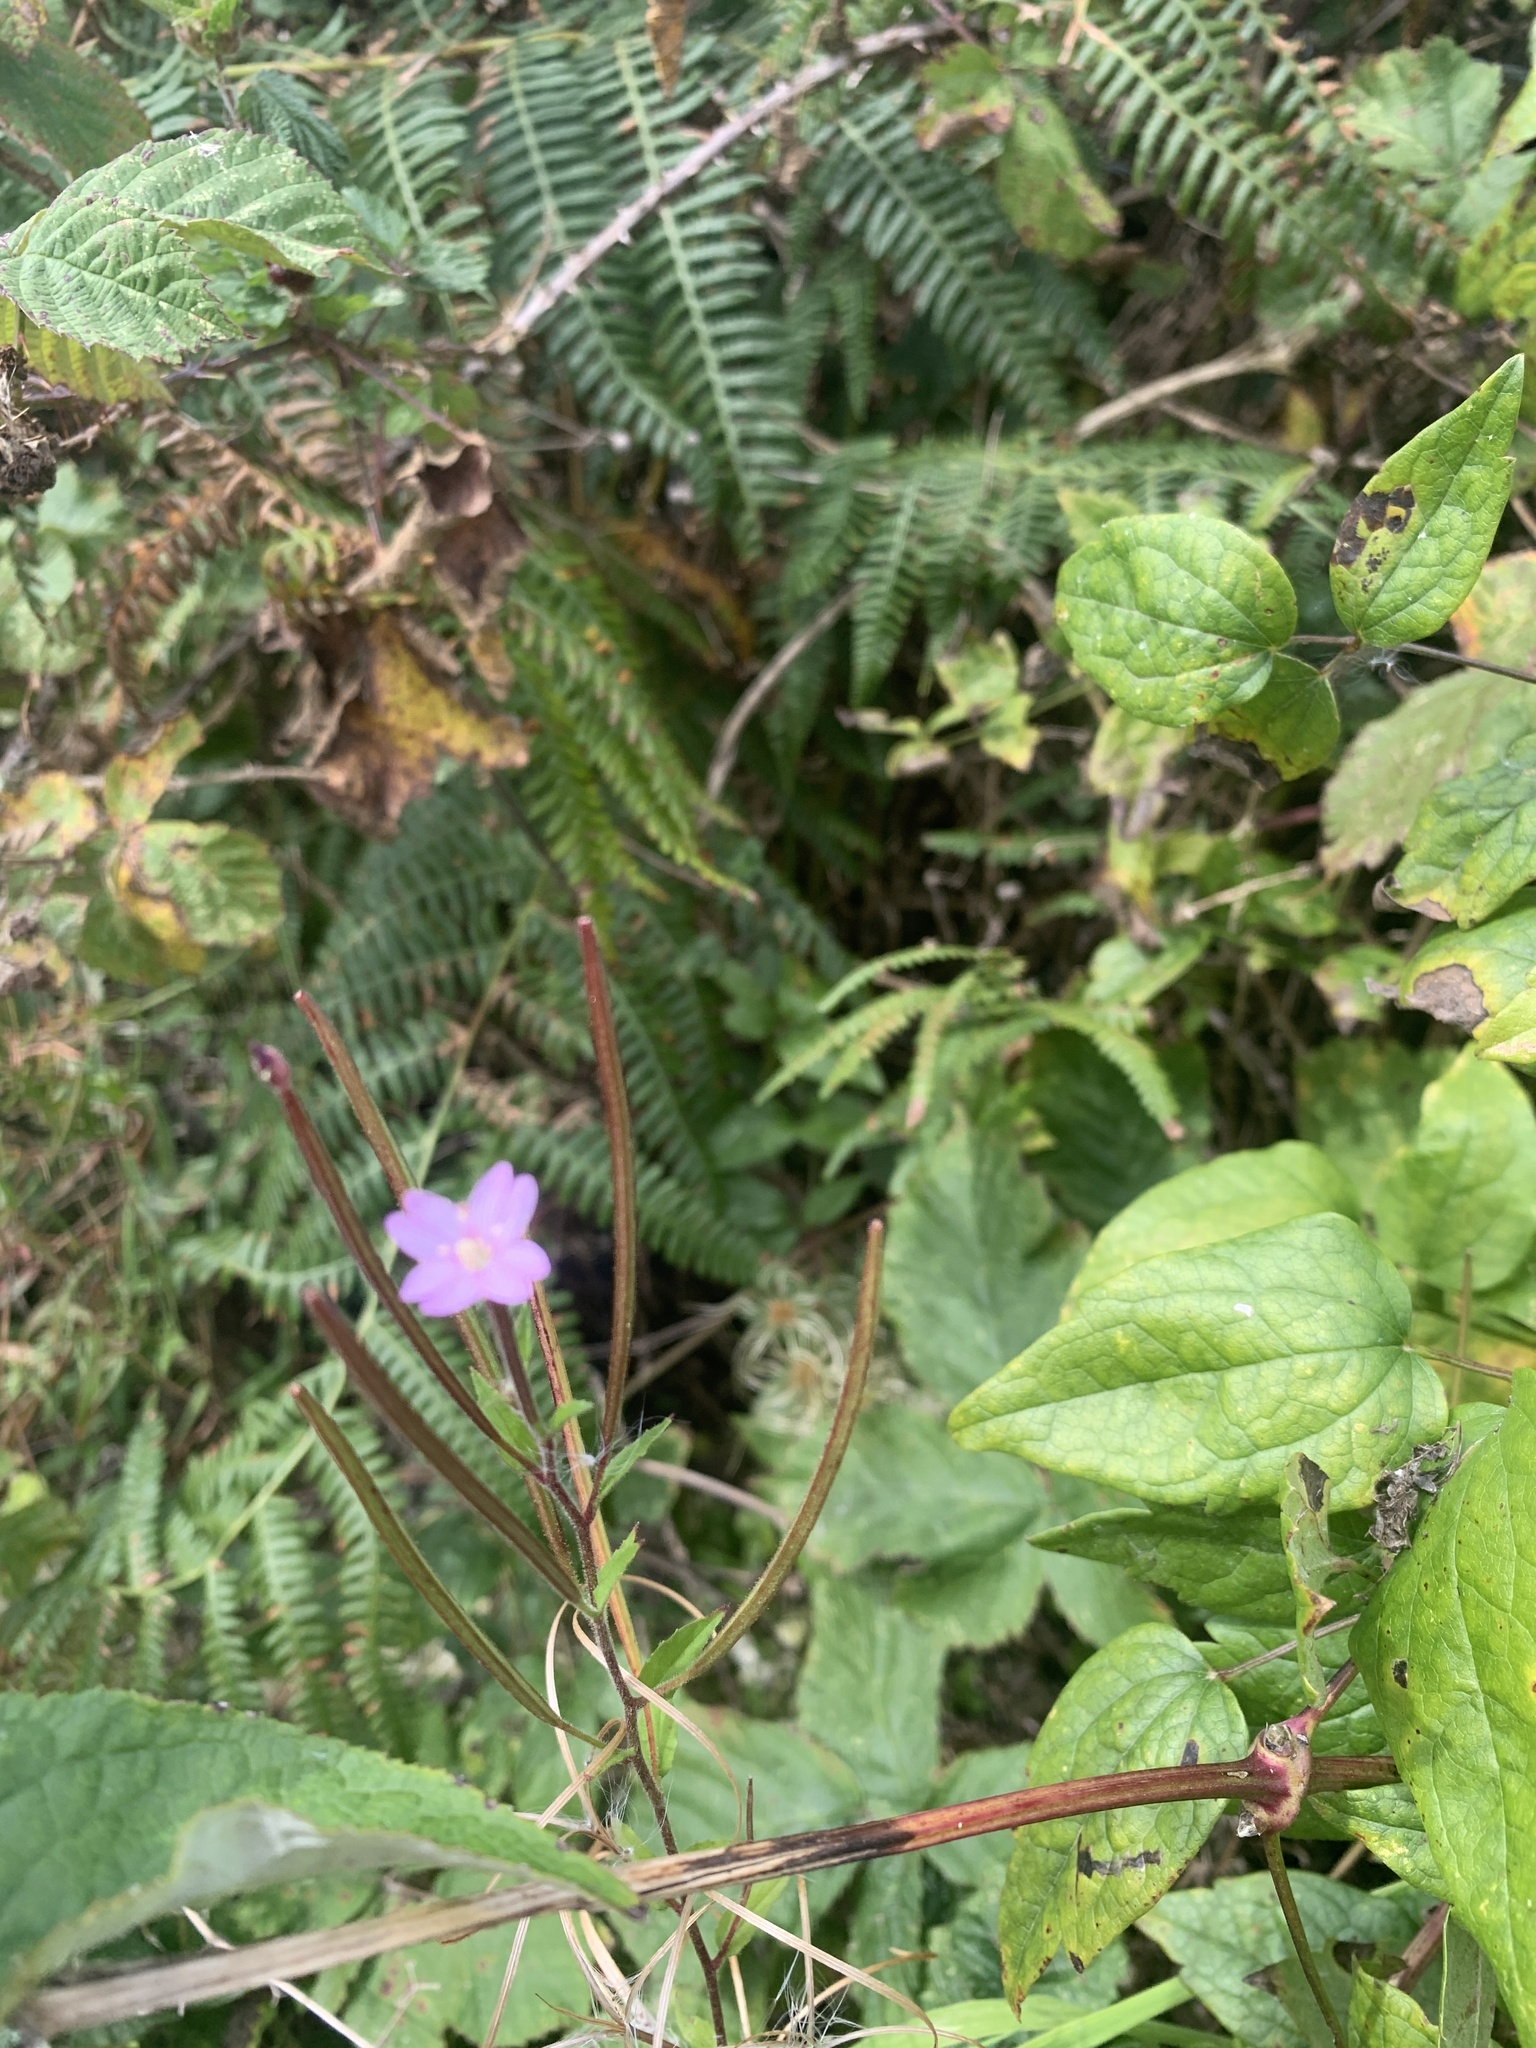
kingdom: Plantae
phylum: Tracheophyta
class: Magnoliopsida
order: Myrtales
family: Onagraceae
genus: Epilobium
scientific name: Epilobium parviflorum
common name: Hoary willowherb
